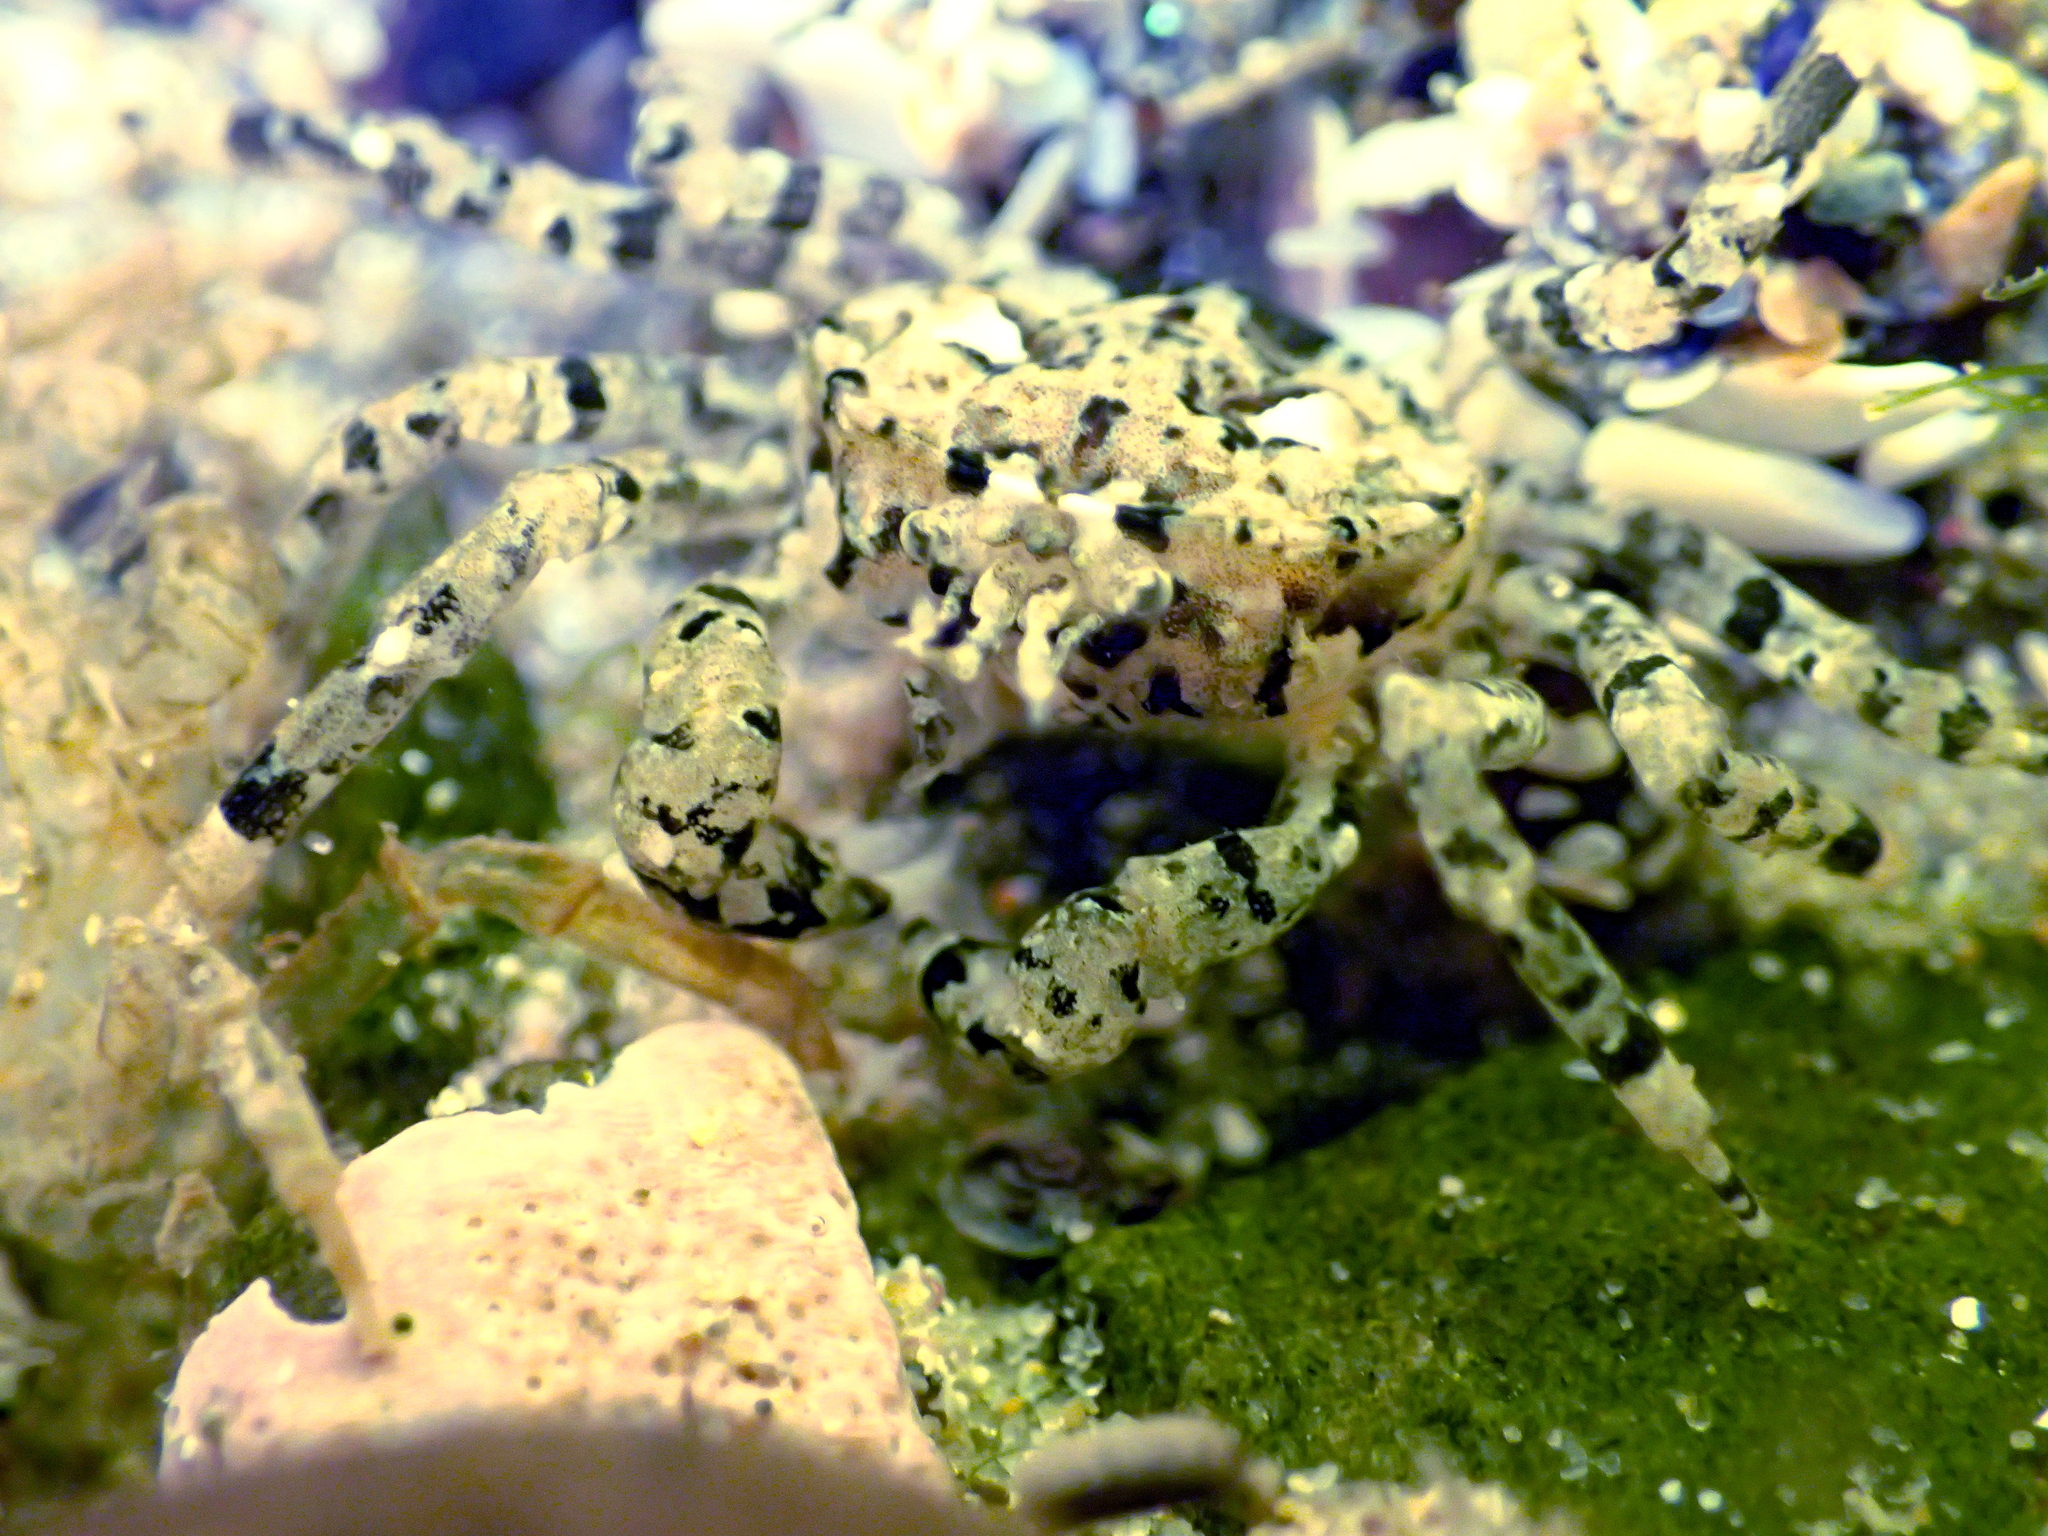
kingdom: Animalia
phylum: Arthropoda
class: Malacostraca
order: Decapoda
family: Hymenosomatidae
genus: Halicarcinus
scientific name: Halicarcinus quoyi
